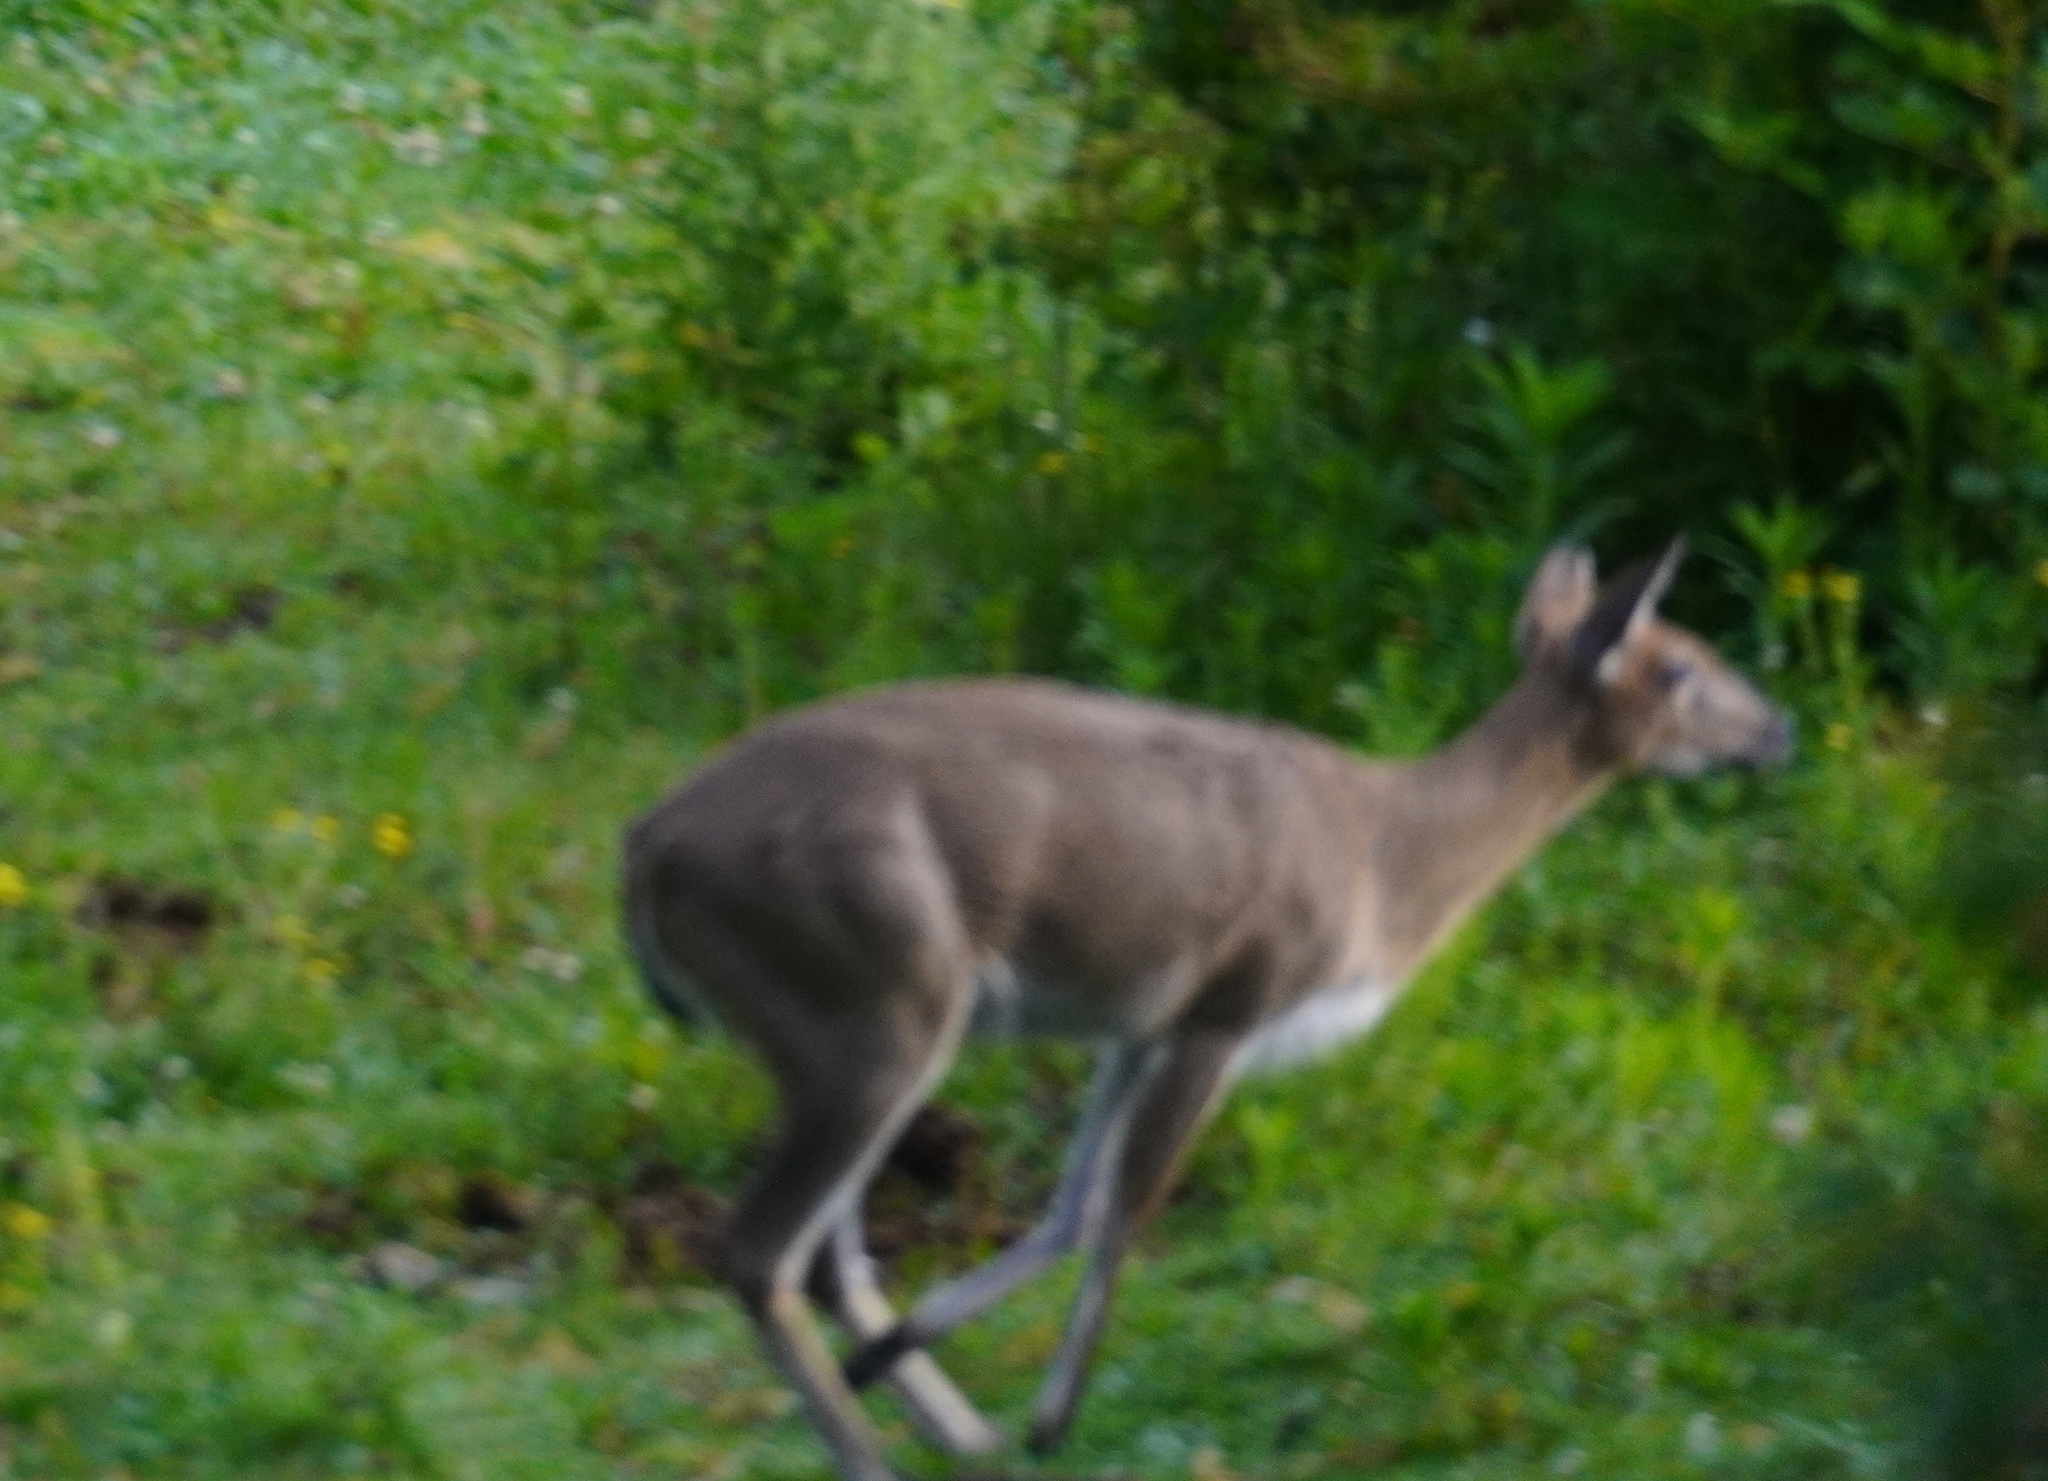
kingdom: Animalia
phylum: Chordata
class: Mammalia
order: Artiodactyla
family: Bovidae
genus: Sylvicapra
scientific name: Sylvicapra grimmia
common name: Bush duiker
